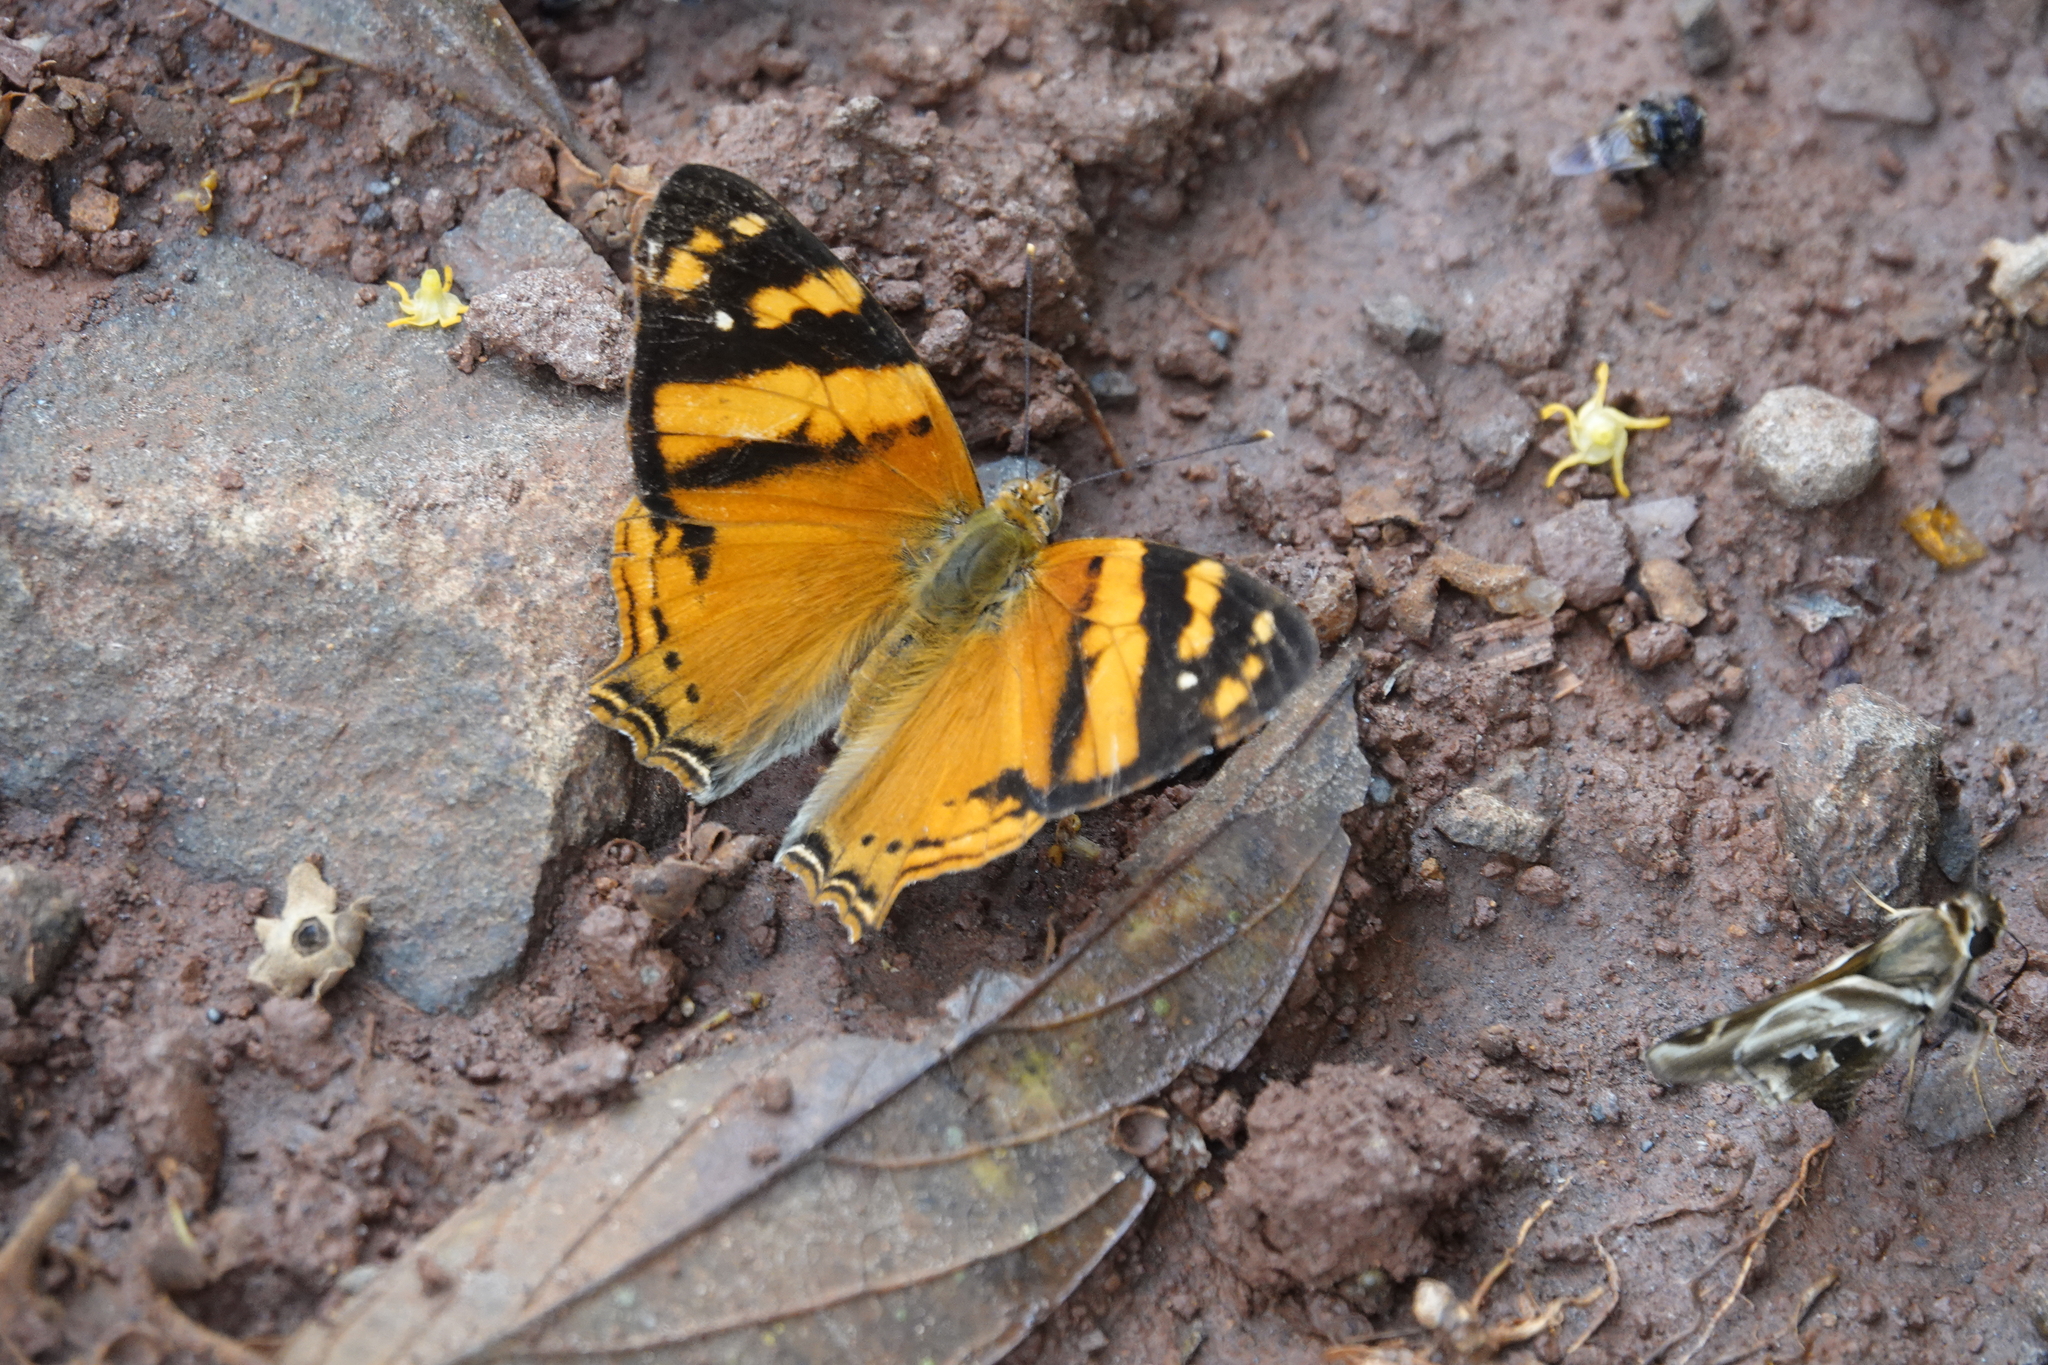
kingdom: Animalia
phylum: Arthropoda
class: Insecta
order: Lepidoptera
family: Nymphalidae
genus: Hypanartia
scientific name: Hypanartia lethe
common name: Orange mapwing
